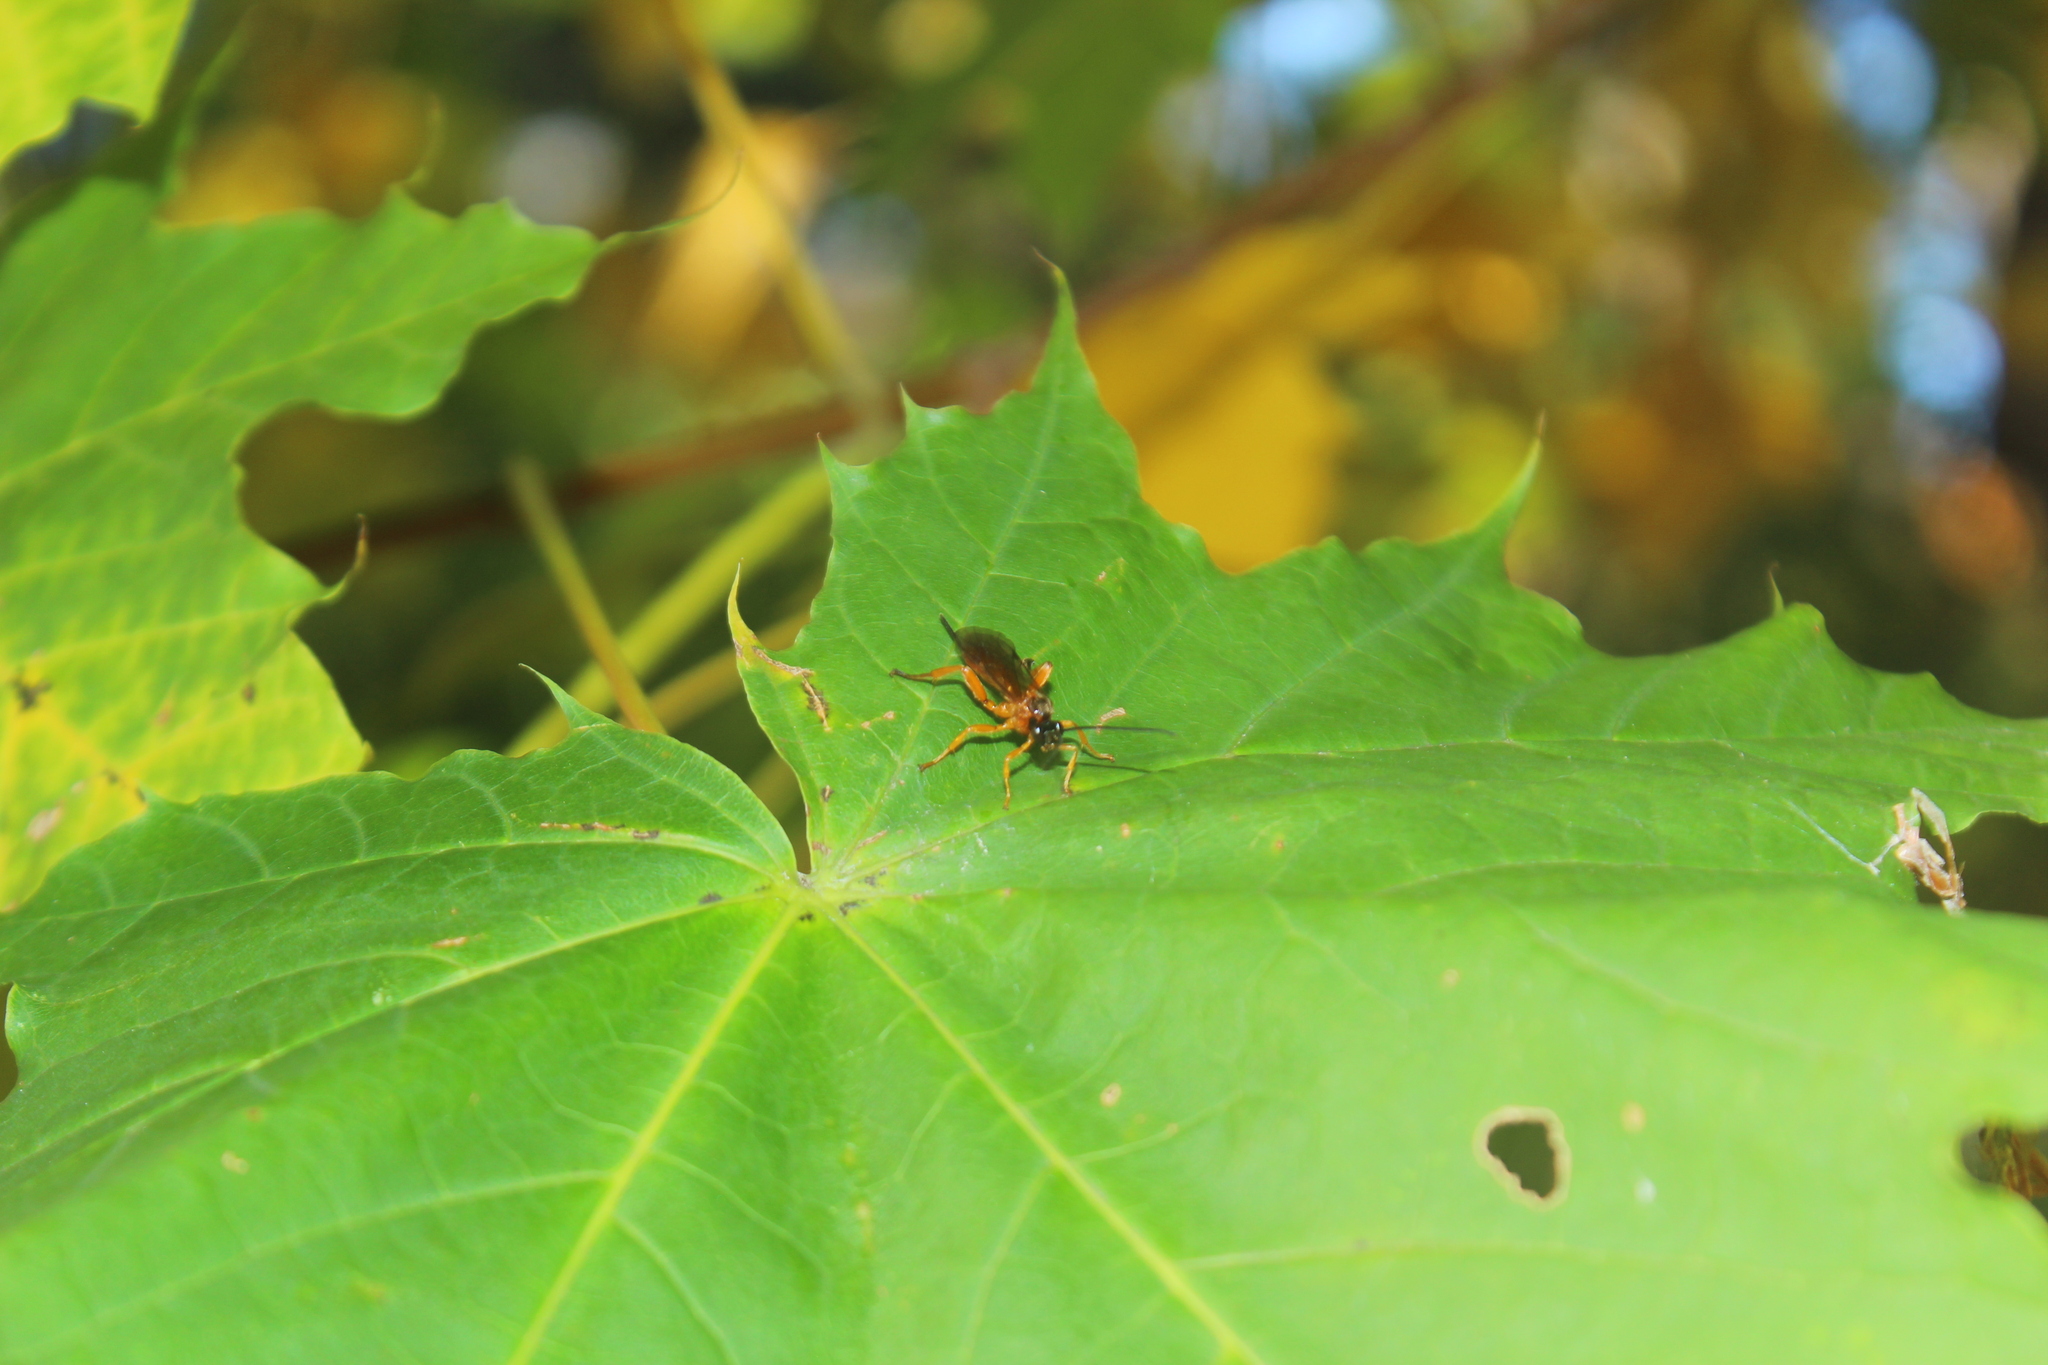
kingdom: Animalia
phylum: Arthropoda
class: Insecta
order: Hymenoptera
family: Ichneumonidae
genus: Theronia
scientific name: Theronia hilaris
